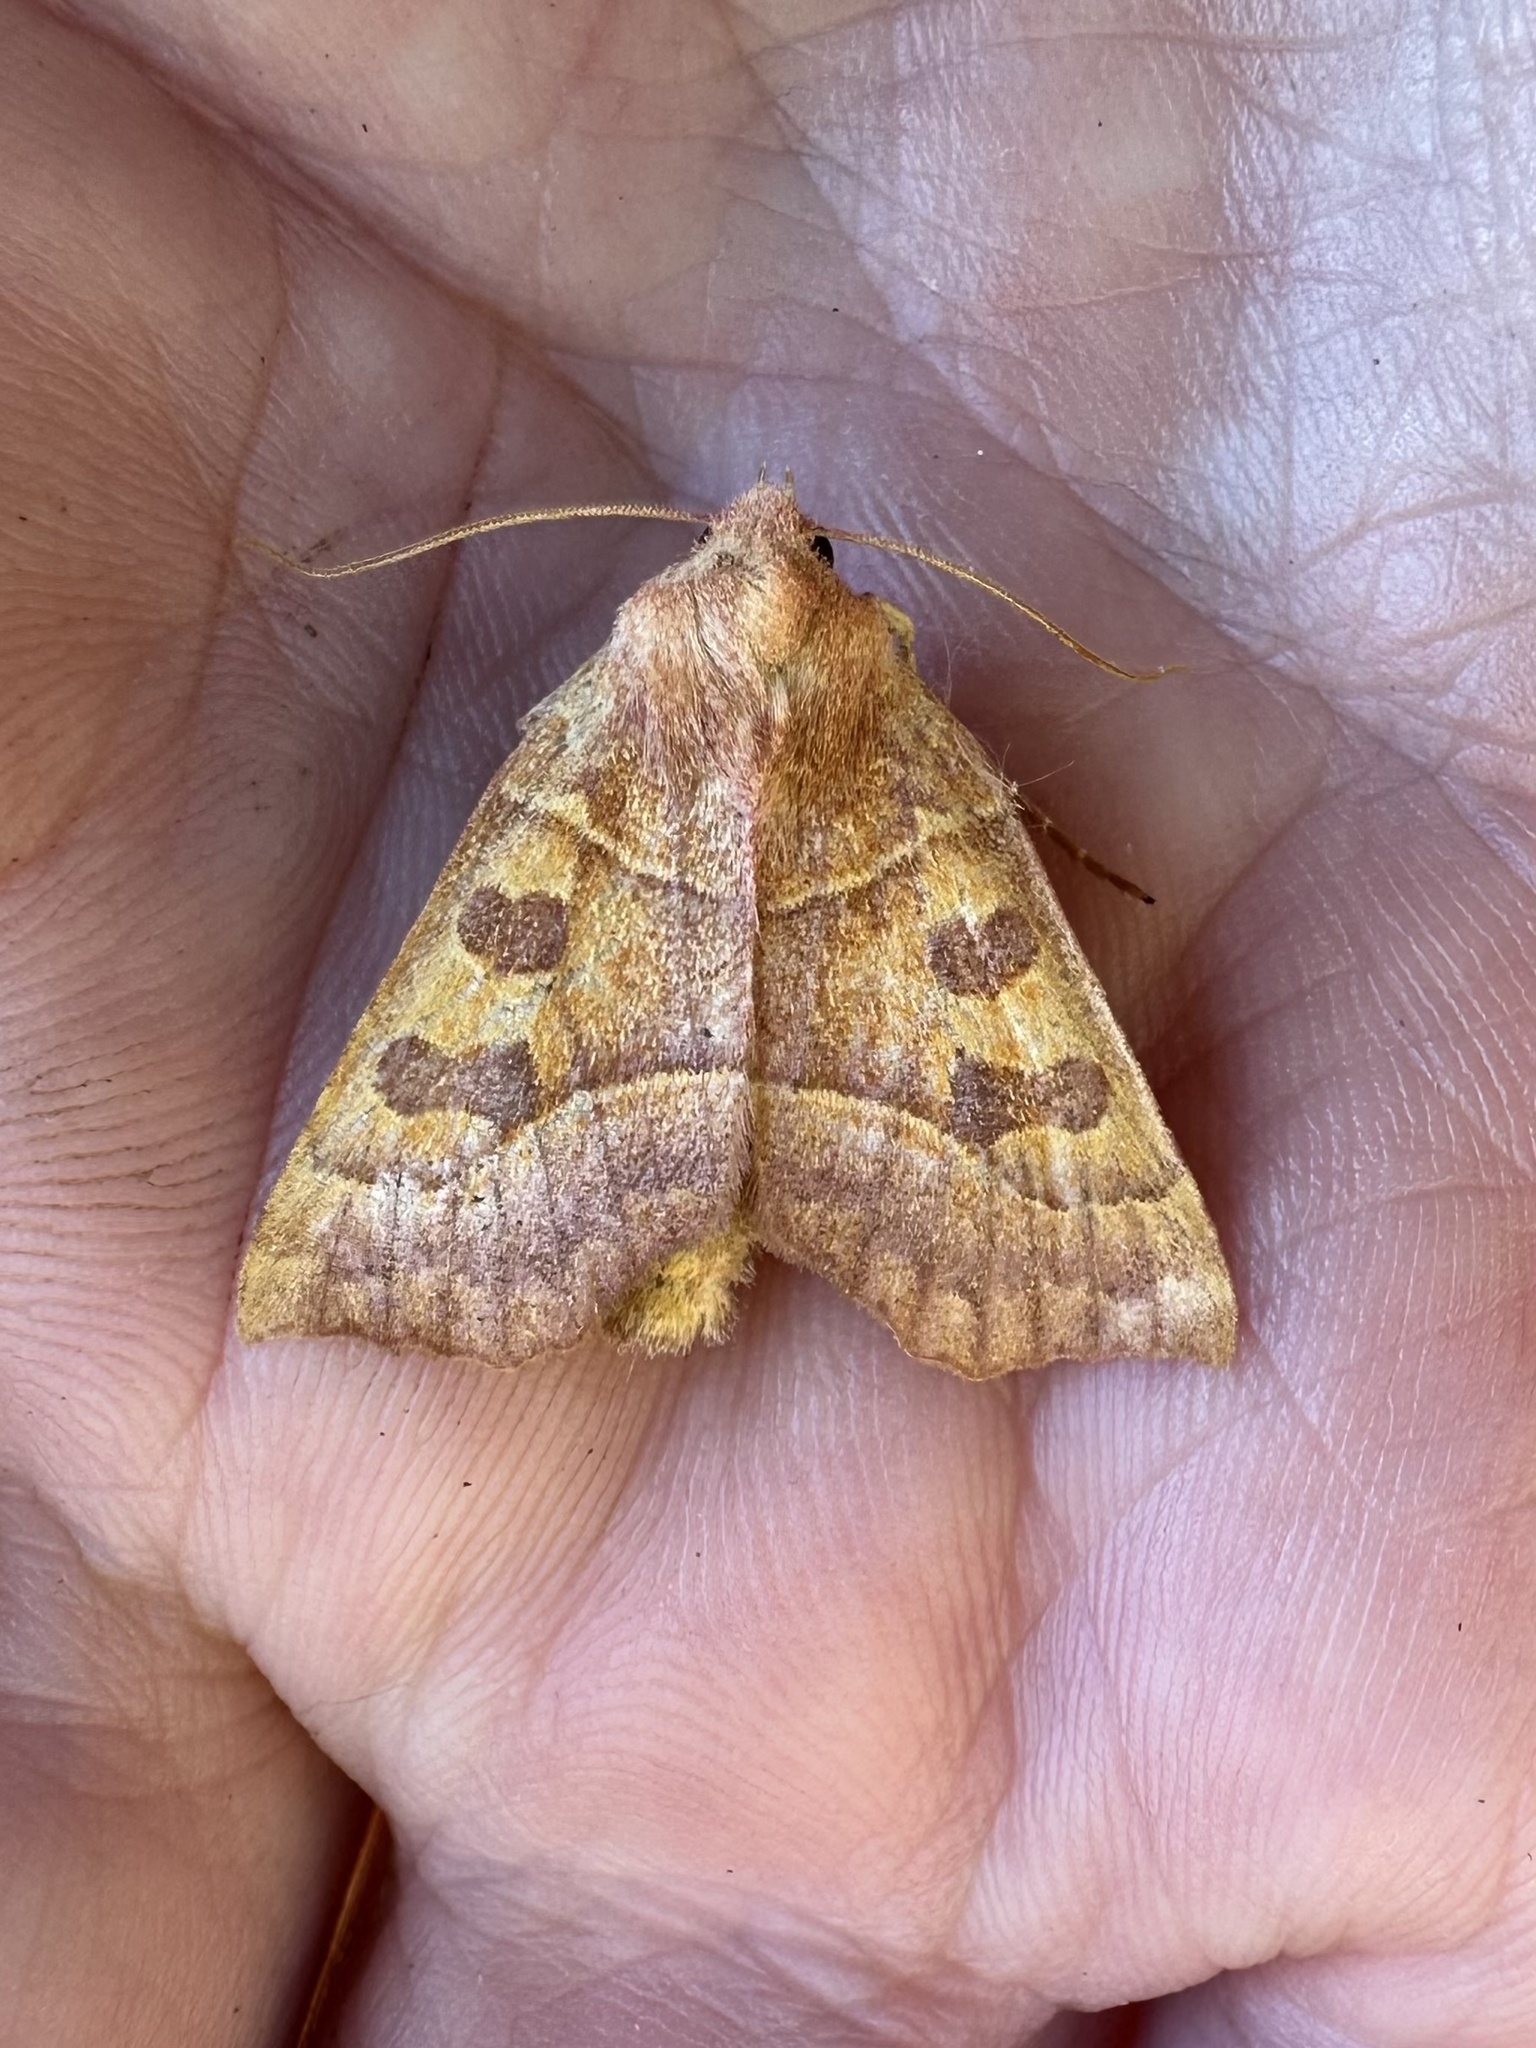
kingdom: Animalia
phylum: Arthropoda
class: Insecta
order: Lepidoptera
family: Noctuidae
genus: Eucirroedia
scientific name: Eucirroedia pampina
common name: Scalloped sallow
